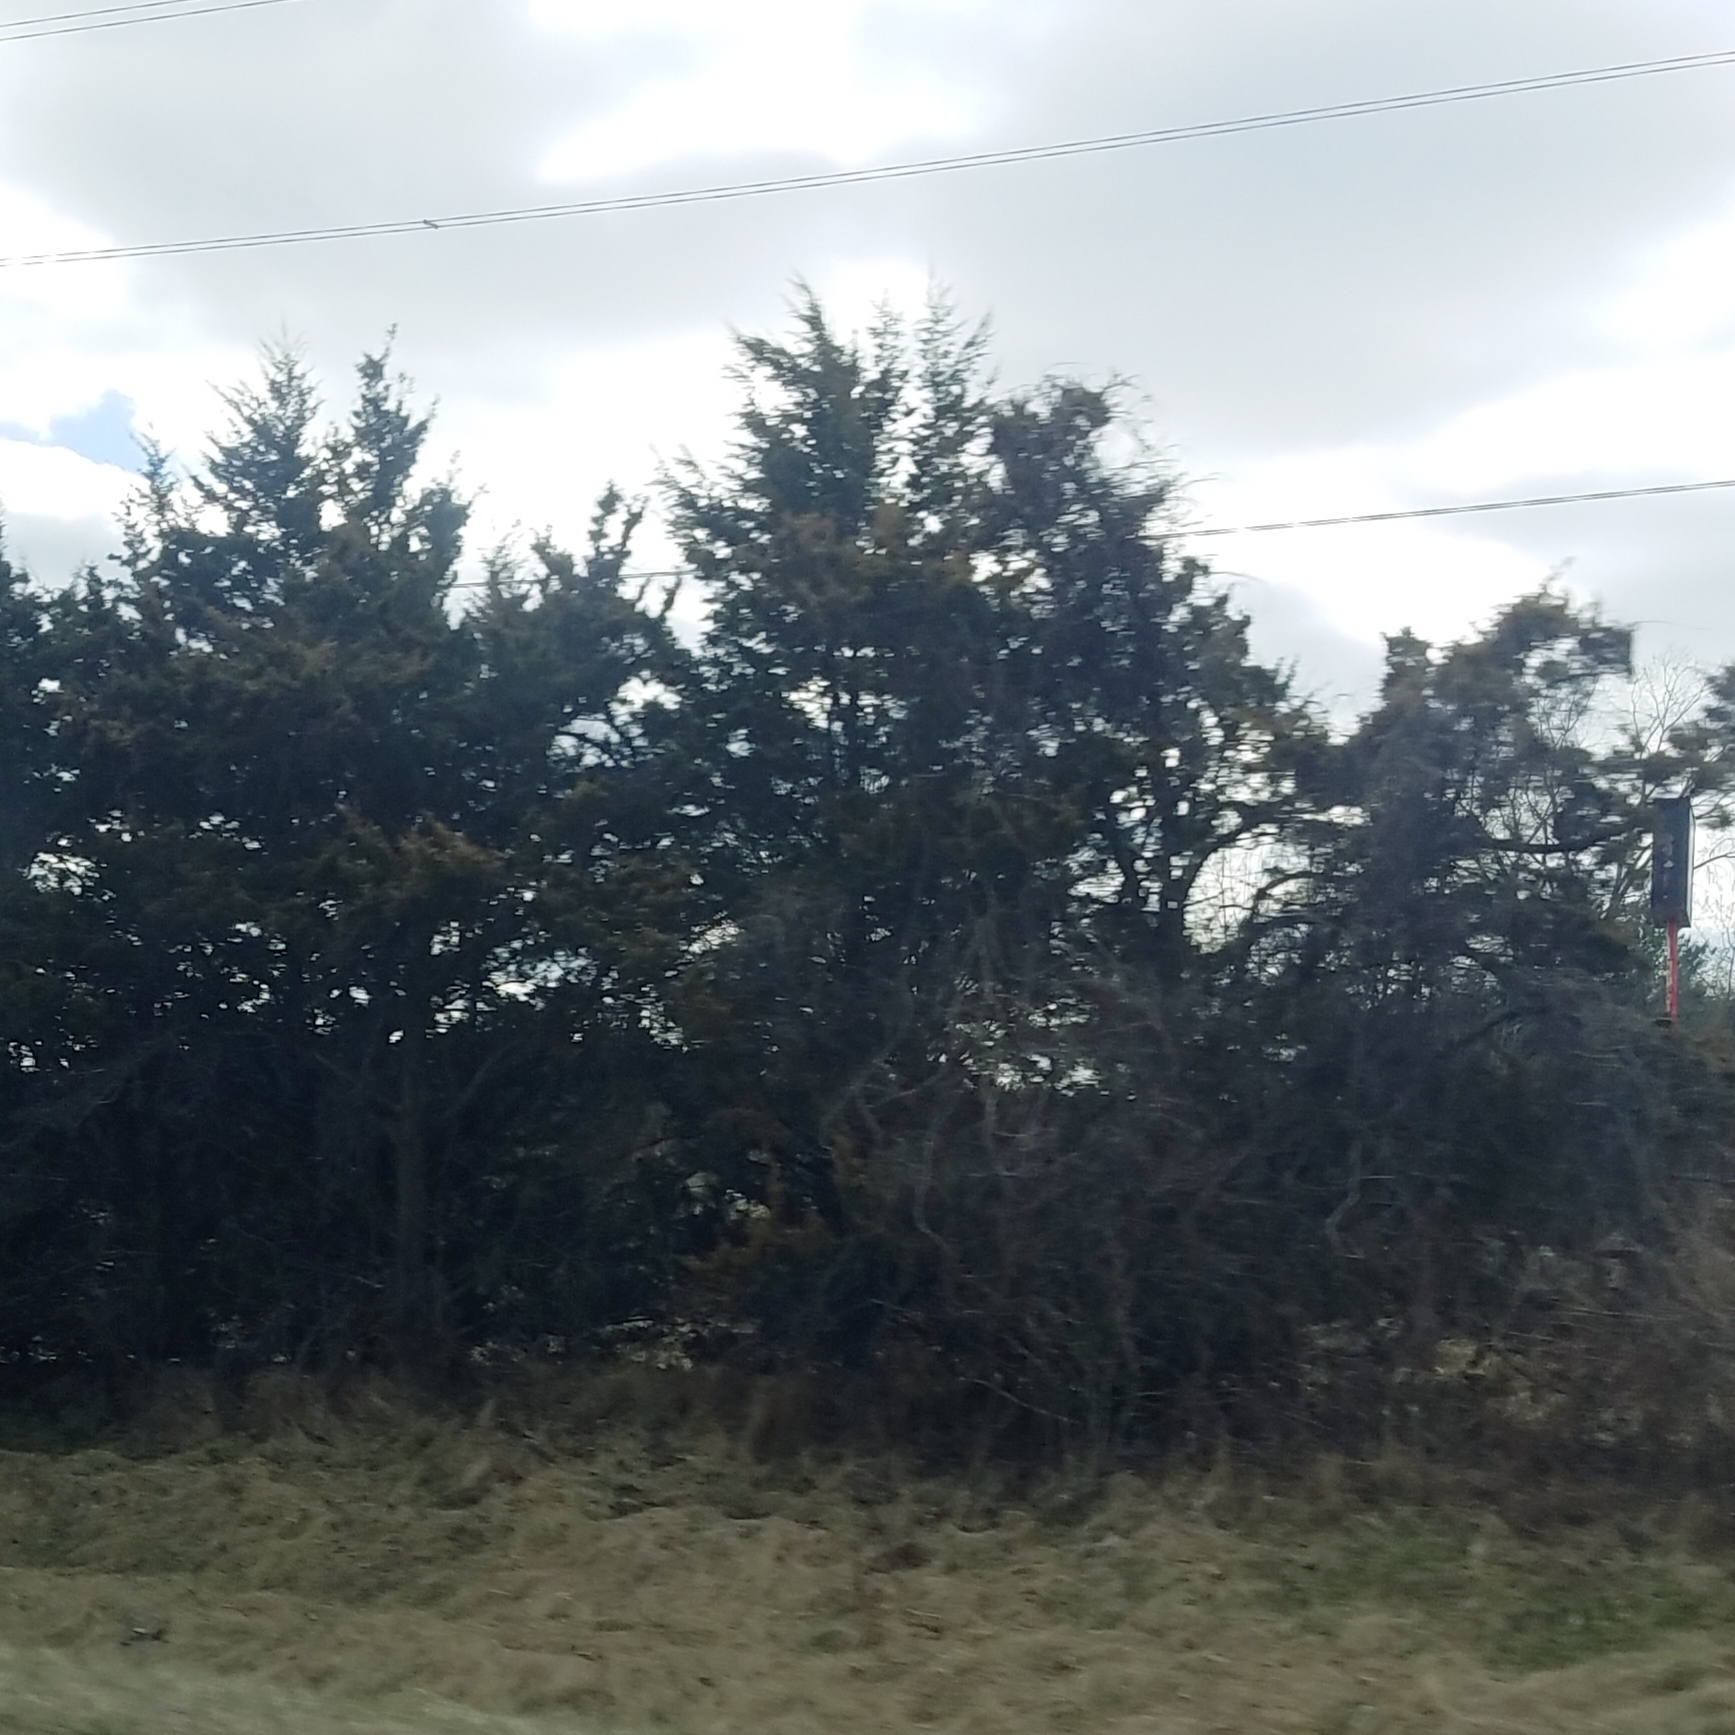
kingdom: Plantae
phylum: Tracheophyta
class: Pinopsida
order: Pinales
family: Cupressaceae
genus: Juniperus
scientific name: Juniperus virginiana
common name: Red juniper
